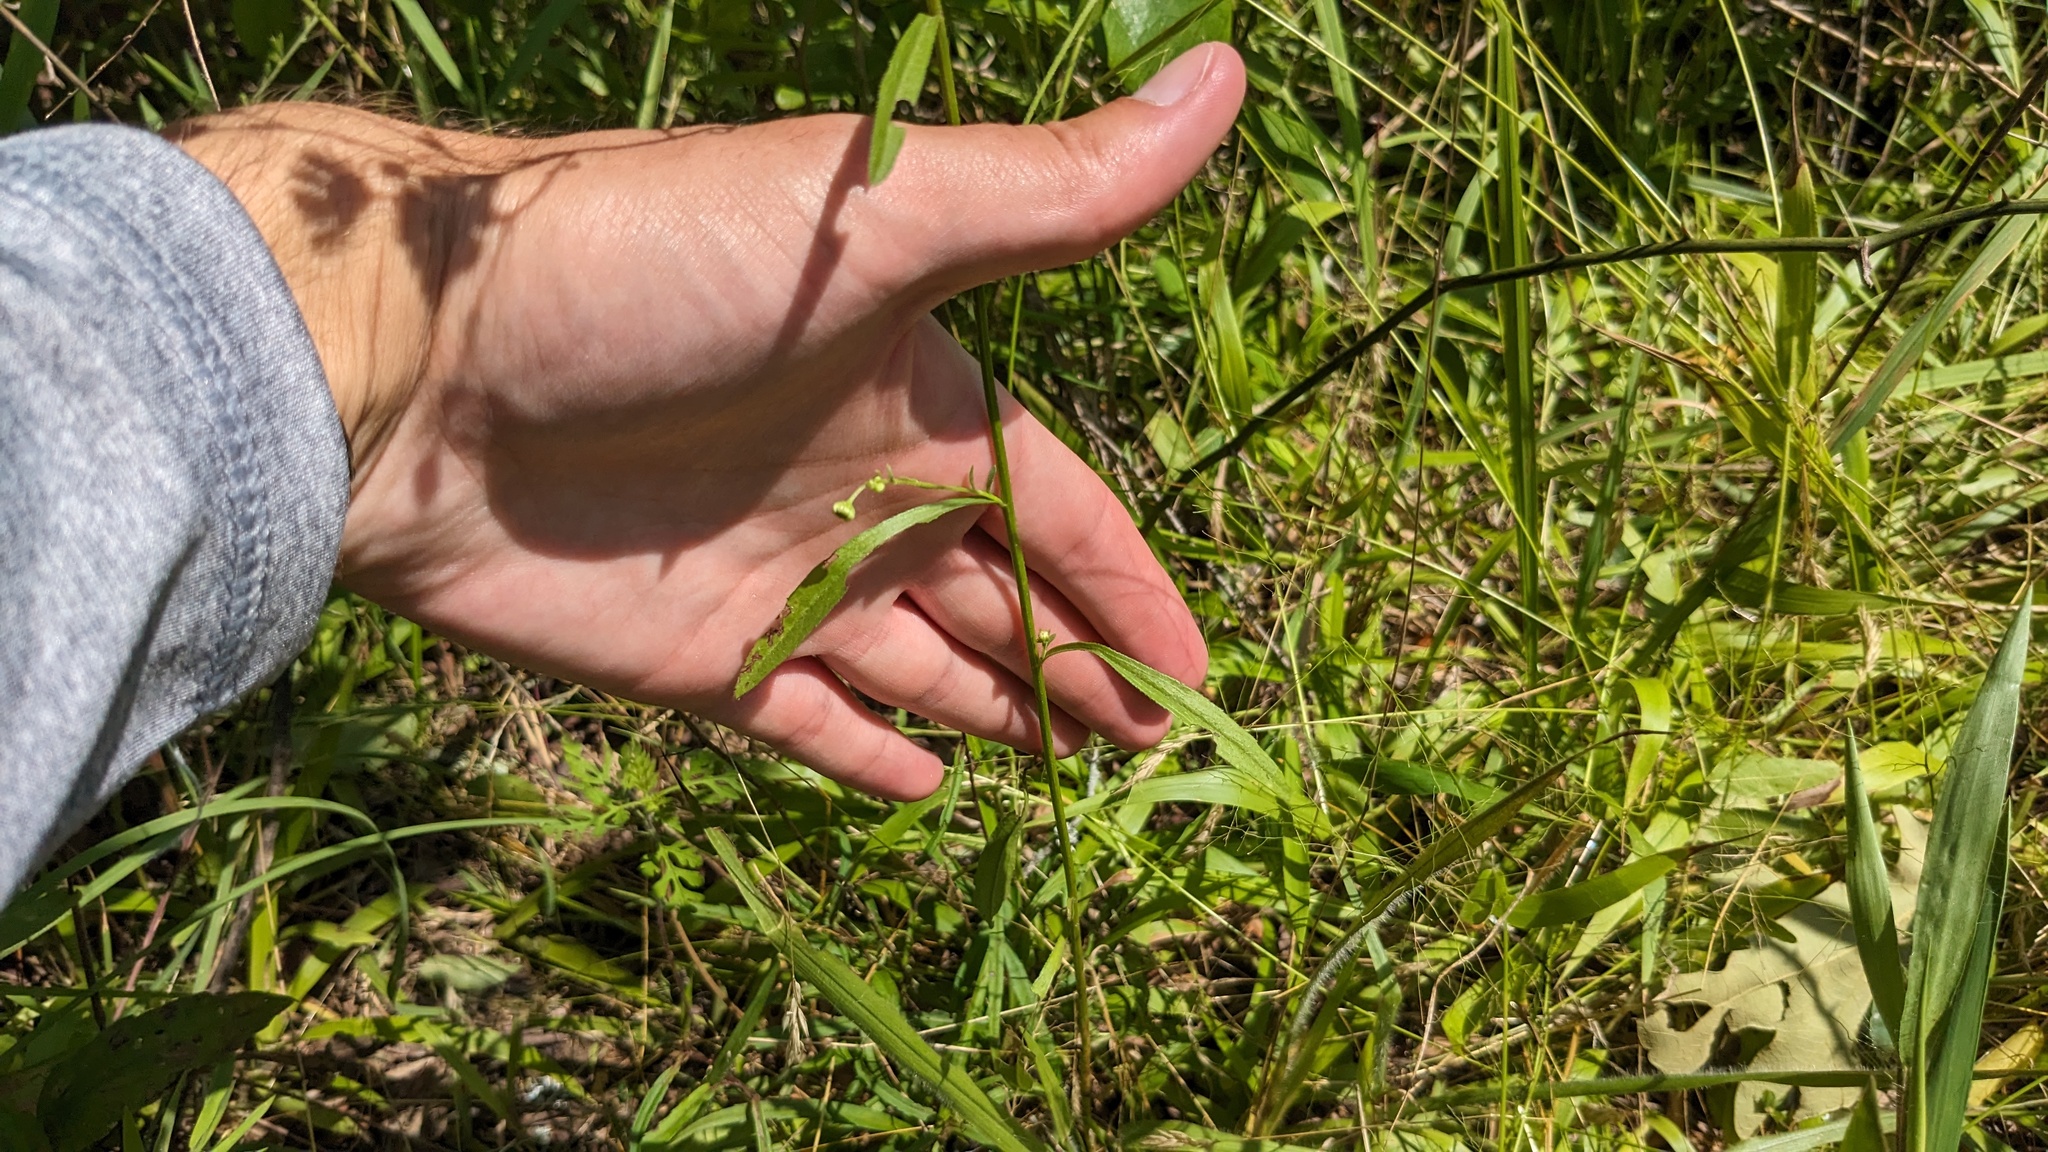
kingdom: Plantae
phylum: Tracheophyta
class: Magnoliopsida
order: Asterales
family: Asteraceae
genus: Erigeron
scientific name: Erigeron strigosus
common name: Common eastern fleabane
